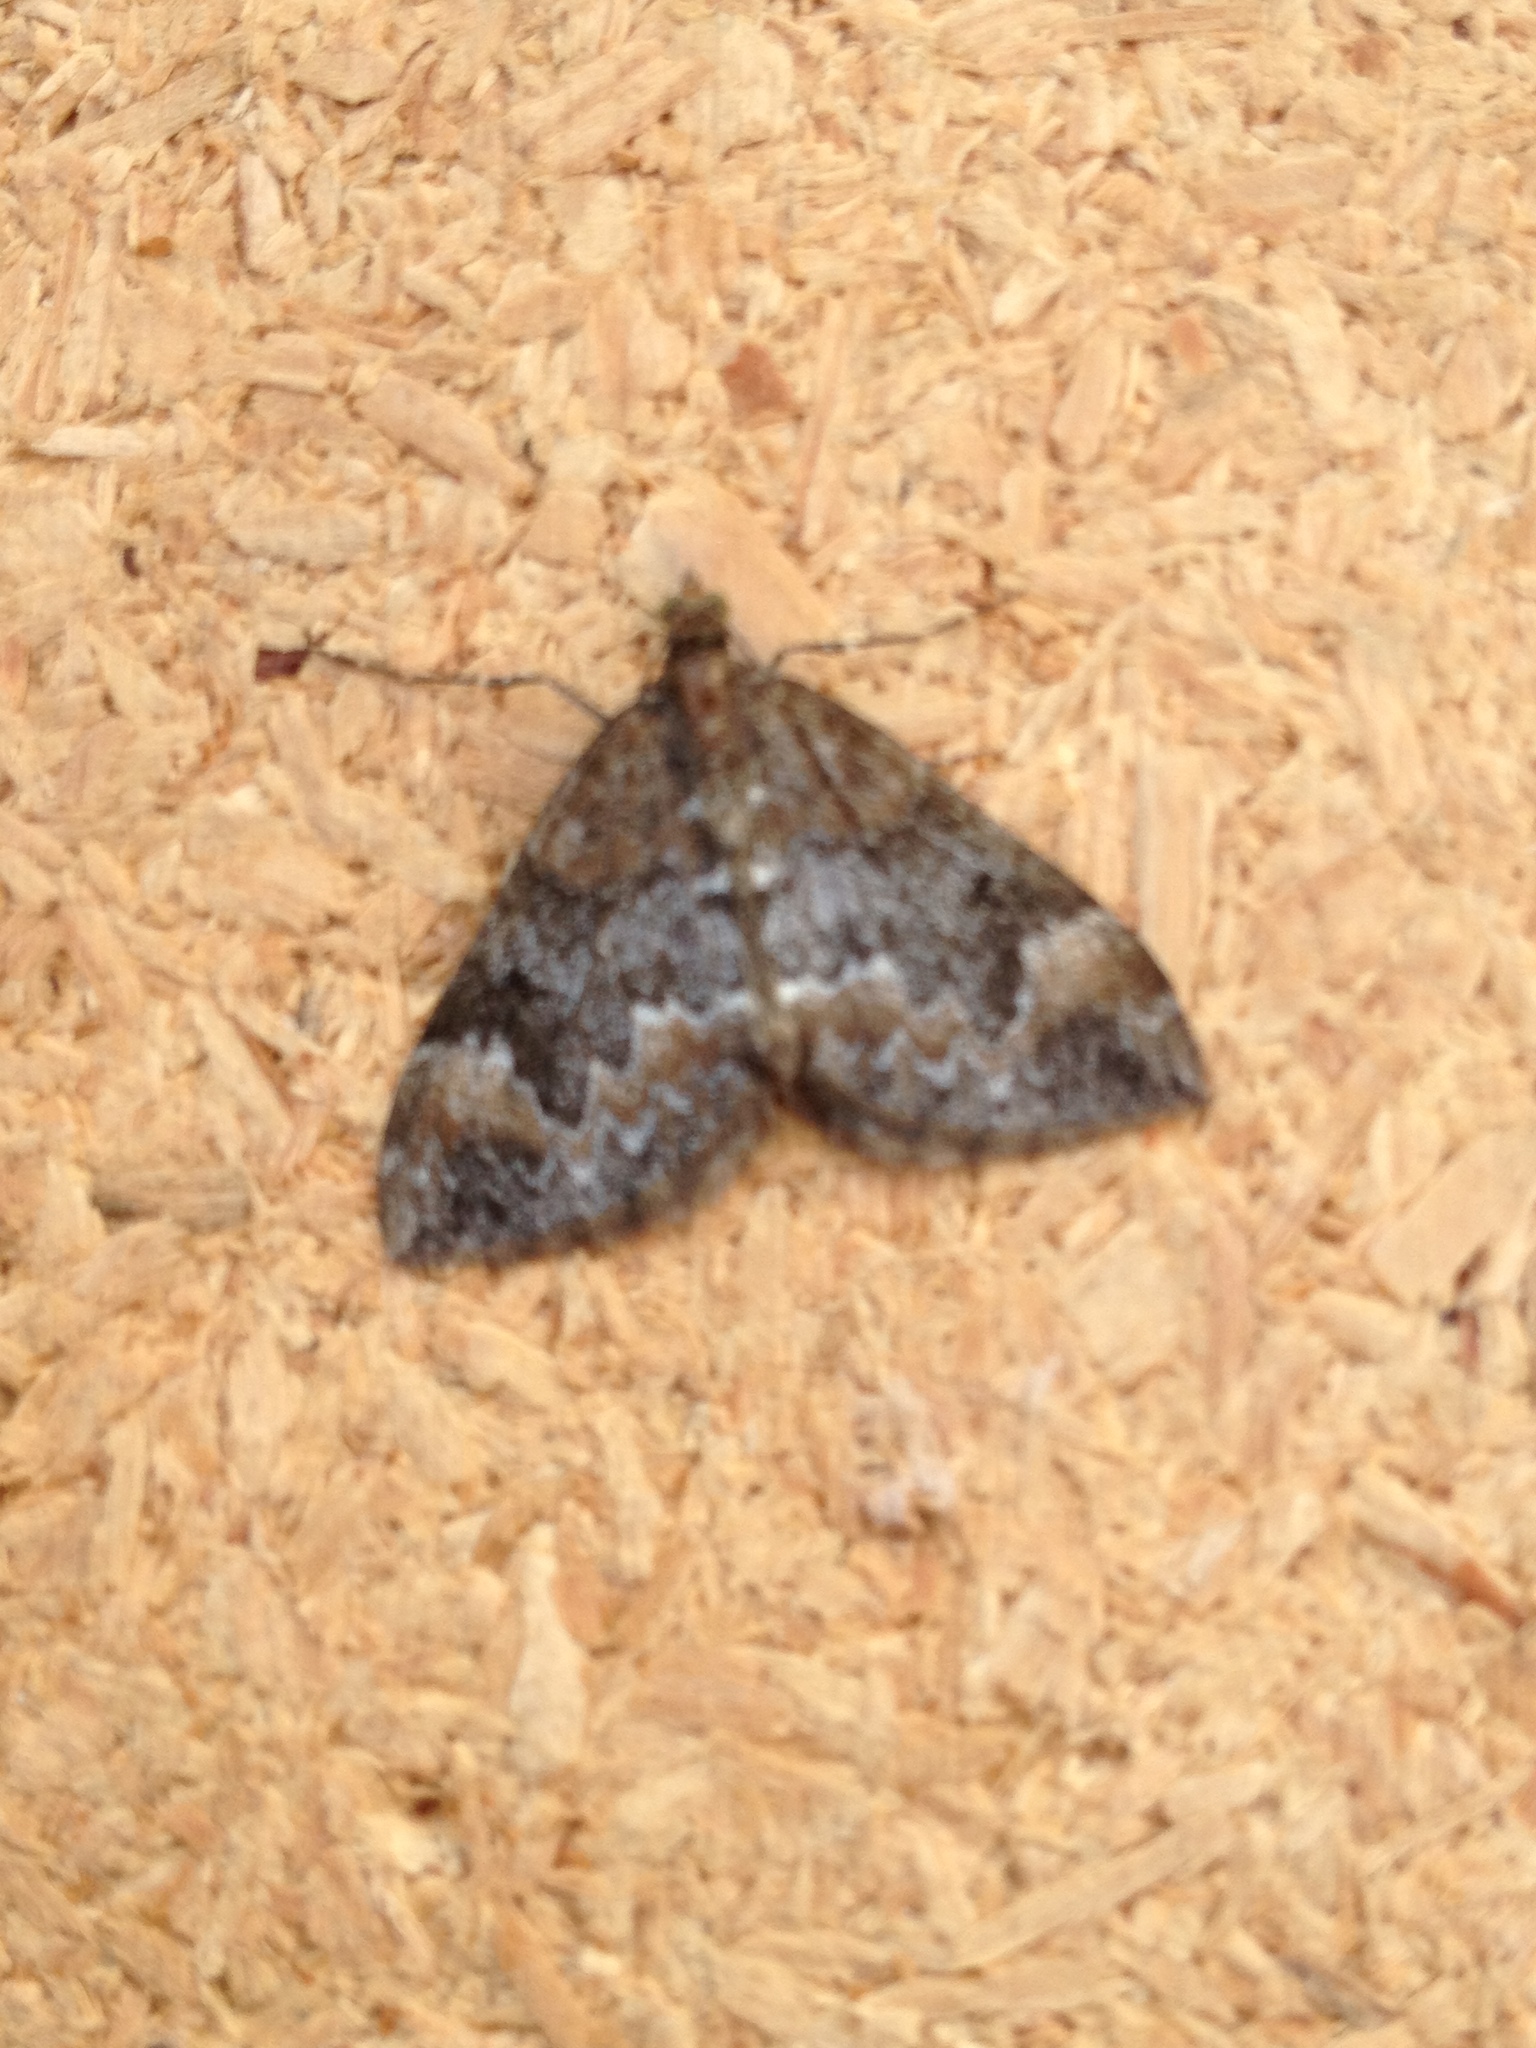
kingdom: Animalia
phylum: Arthropoda
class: Insecta
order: Lepidoptera
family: Geometridae
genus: Dysstroma
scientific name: Dysstroma truncata
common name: Common marbled carpet
